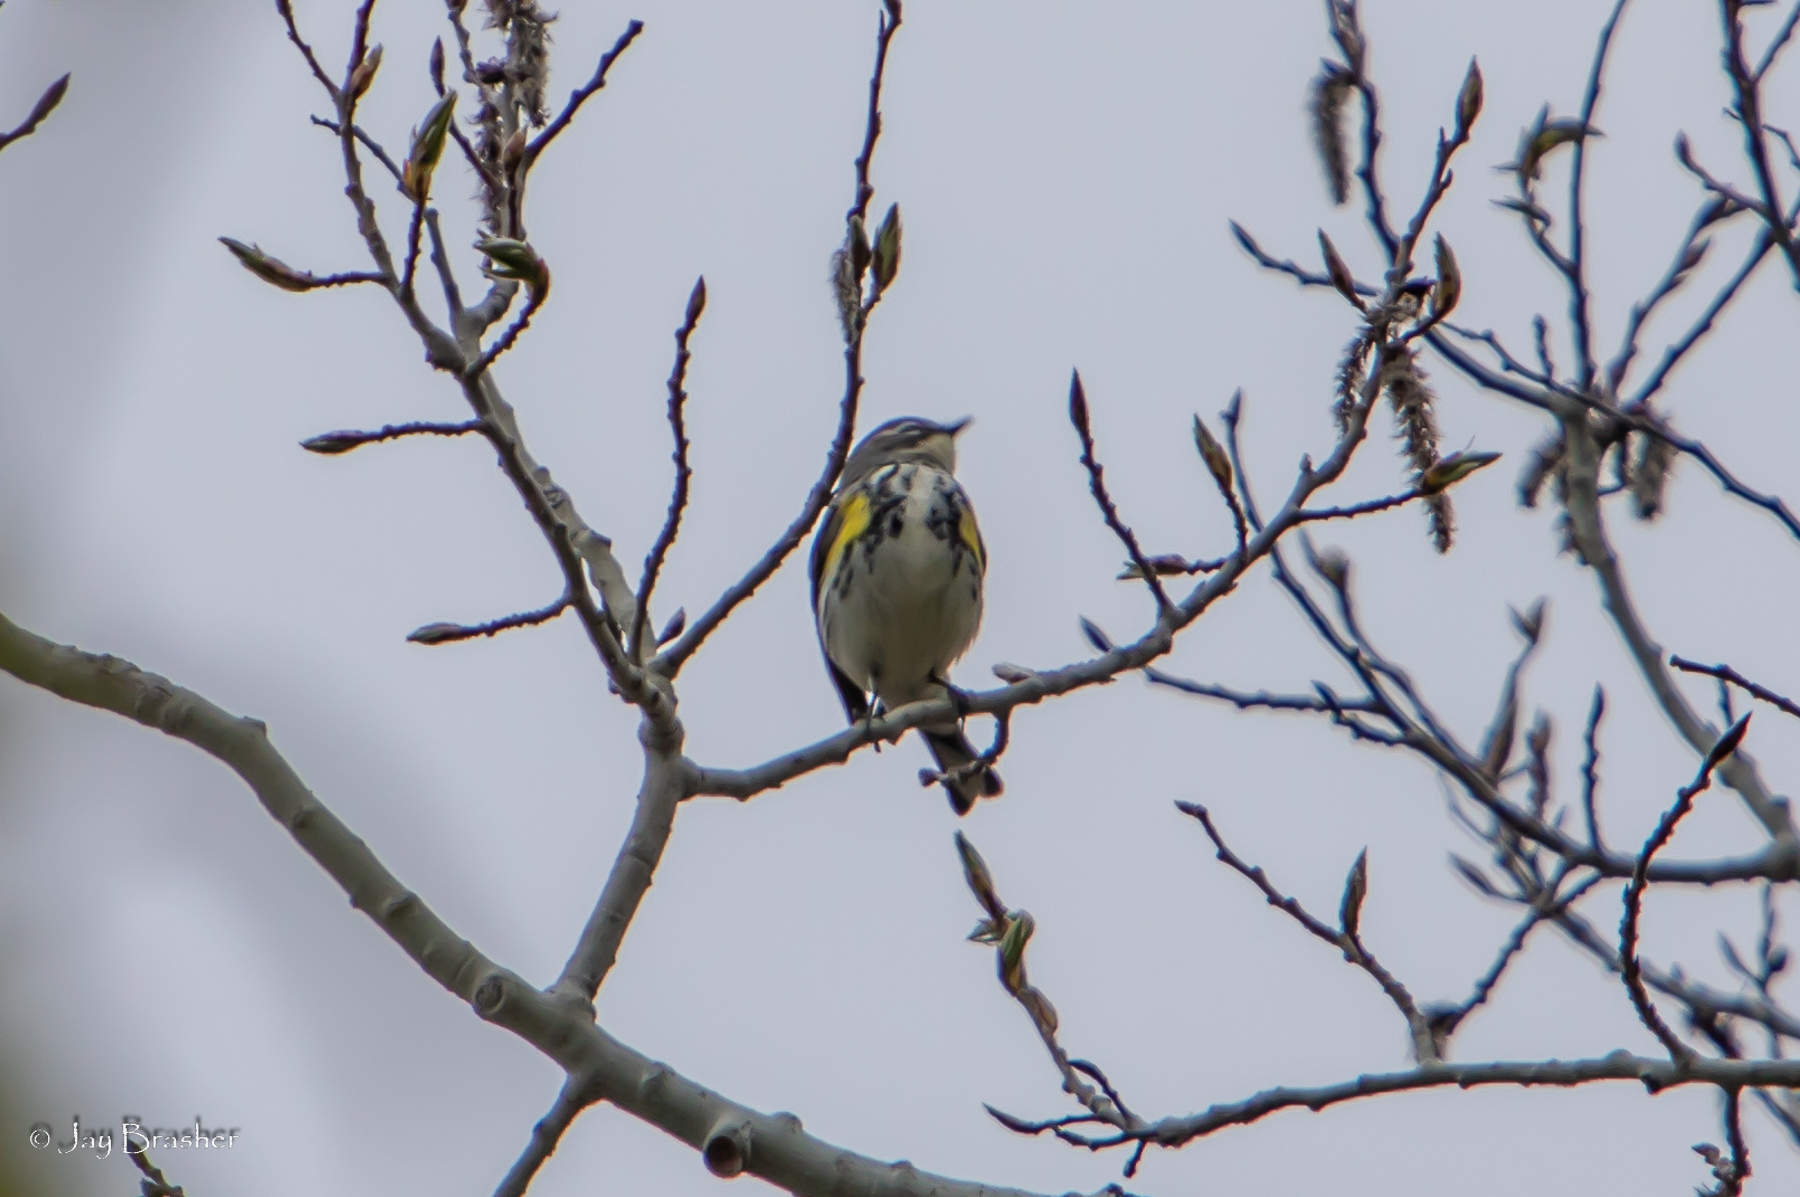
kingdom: Animalia
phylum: Chordata
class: Aves
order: Passeriformes
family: Parulidae
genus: Setophaga
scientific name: Setophaga coronata
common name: Myrtle warbler
